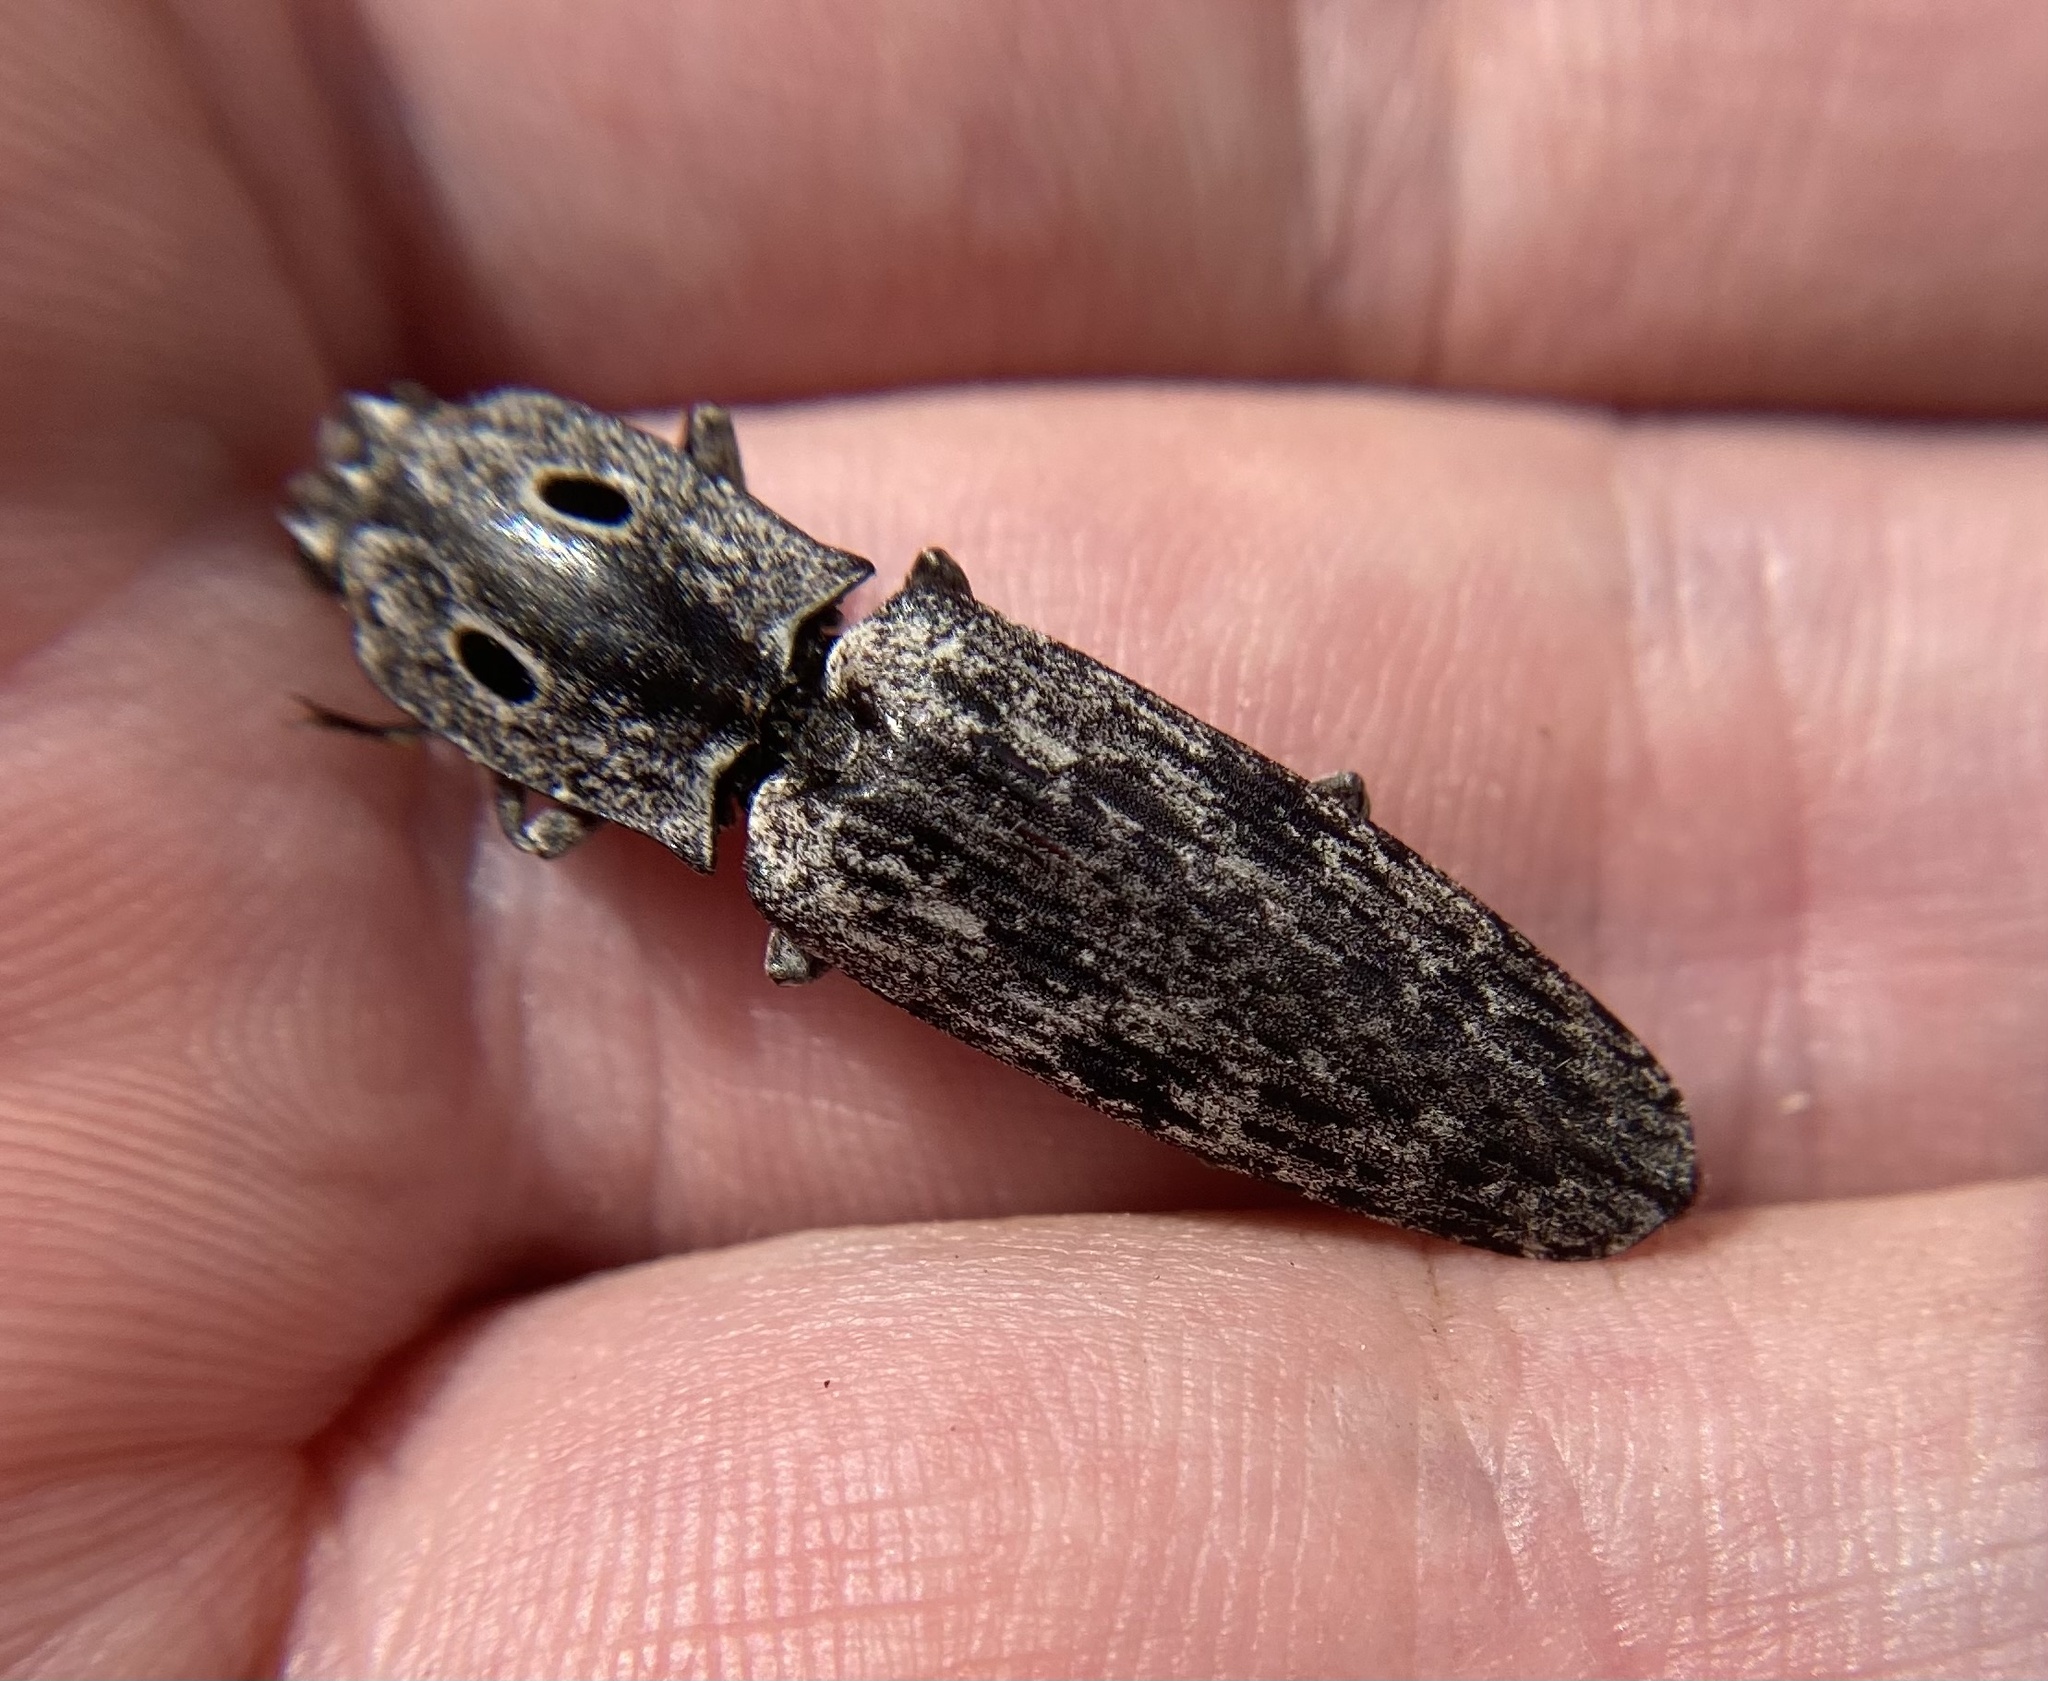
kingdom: Animalia
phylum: Arthropoda
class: Insecta
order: Coleoptera
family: Elateridae
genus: Alaus
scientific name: Alaus myops
